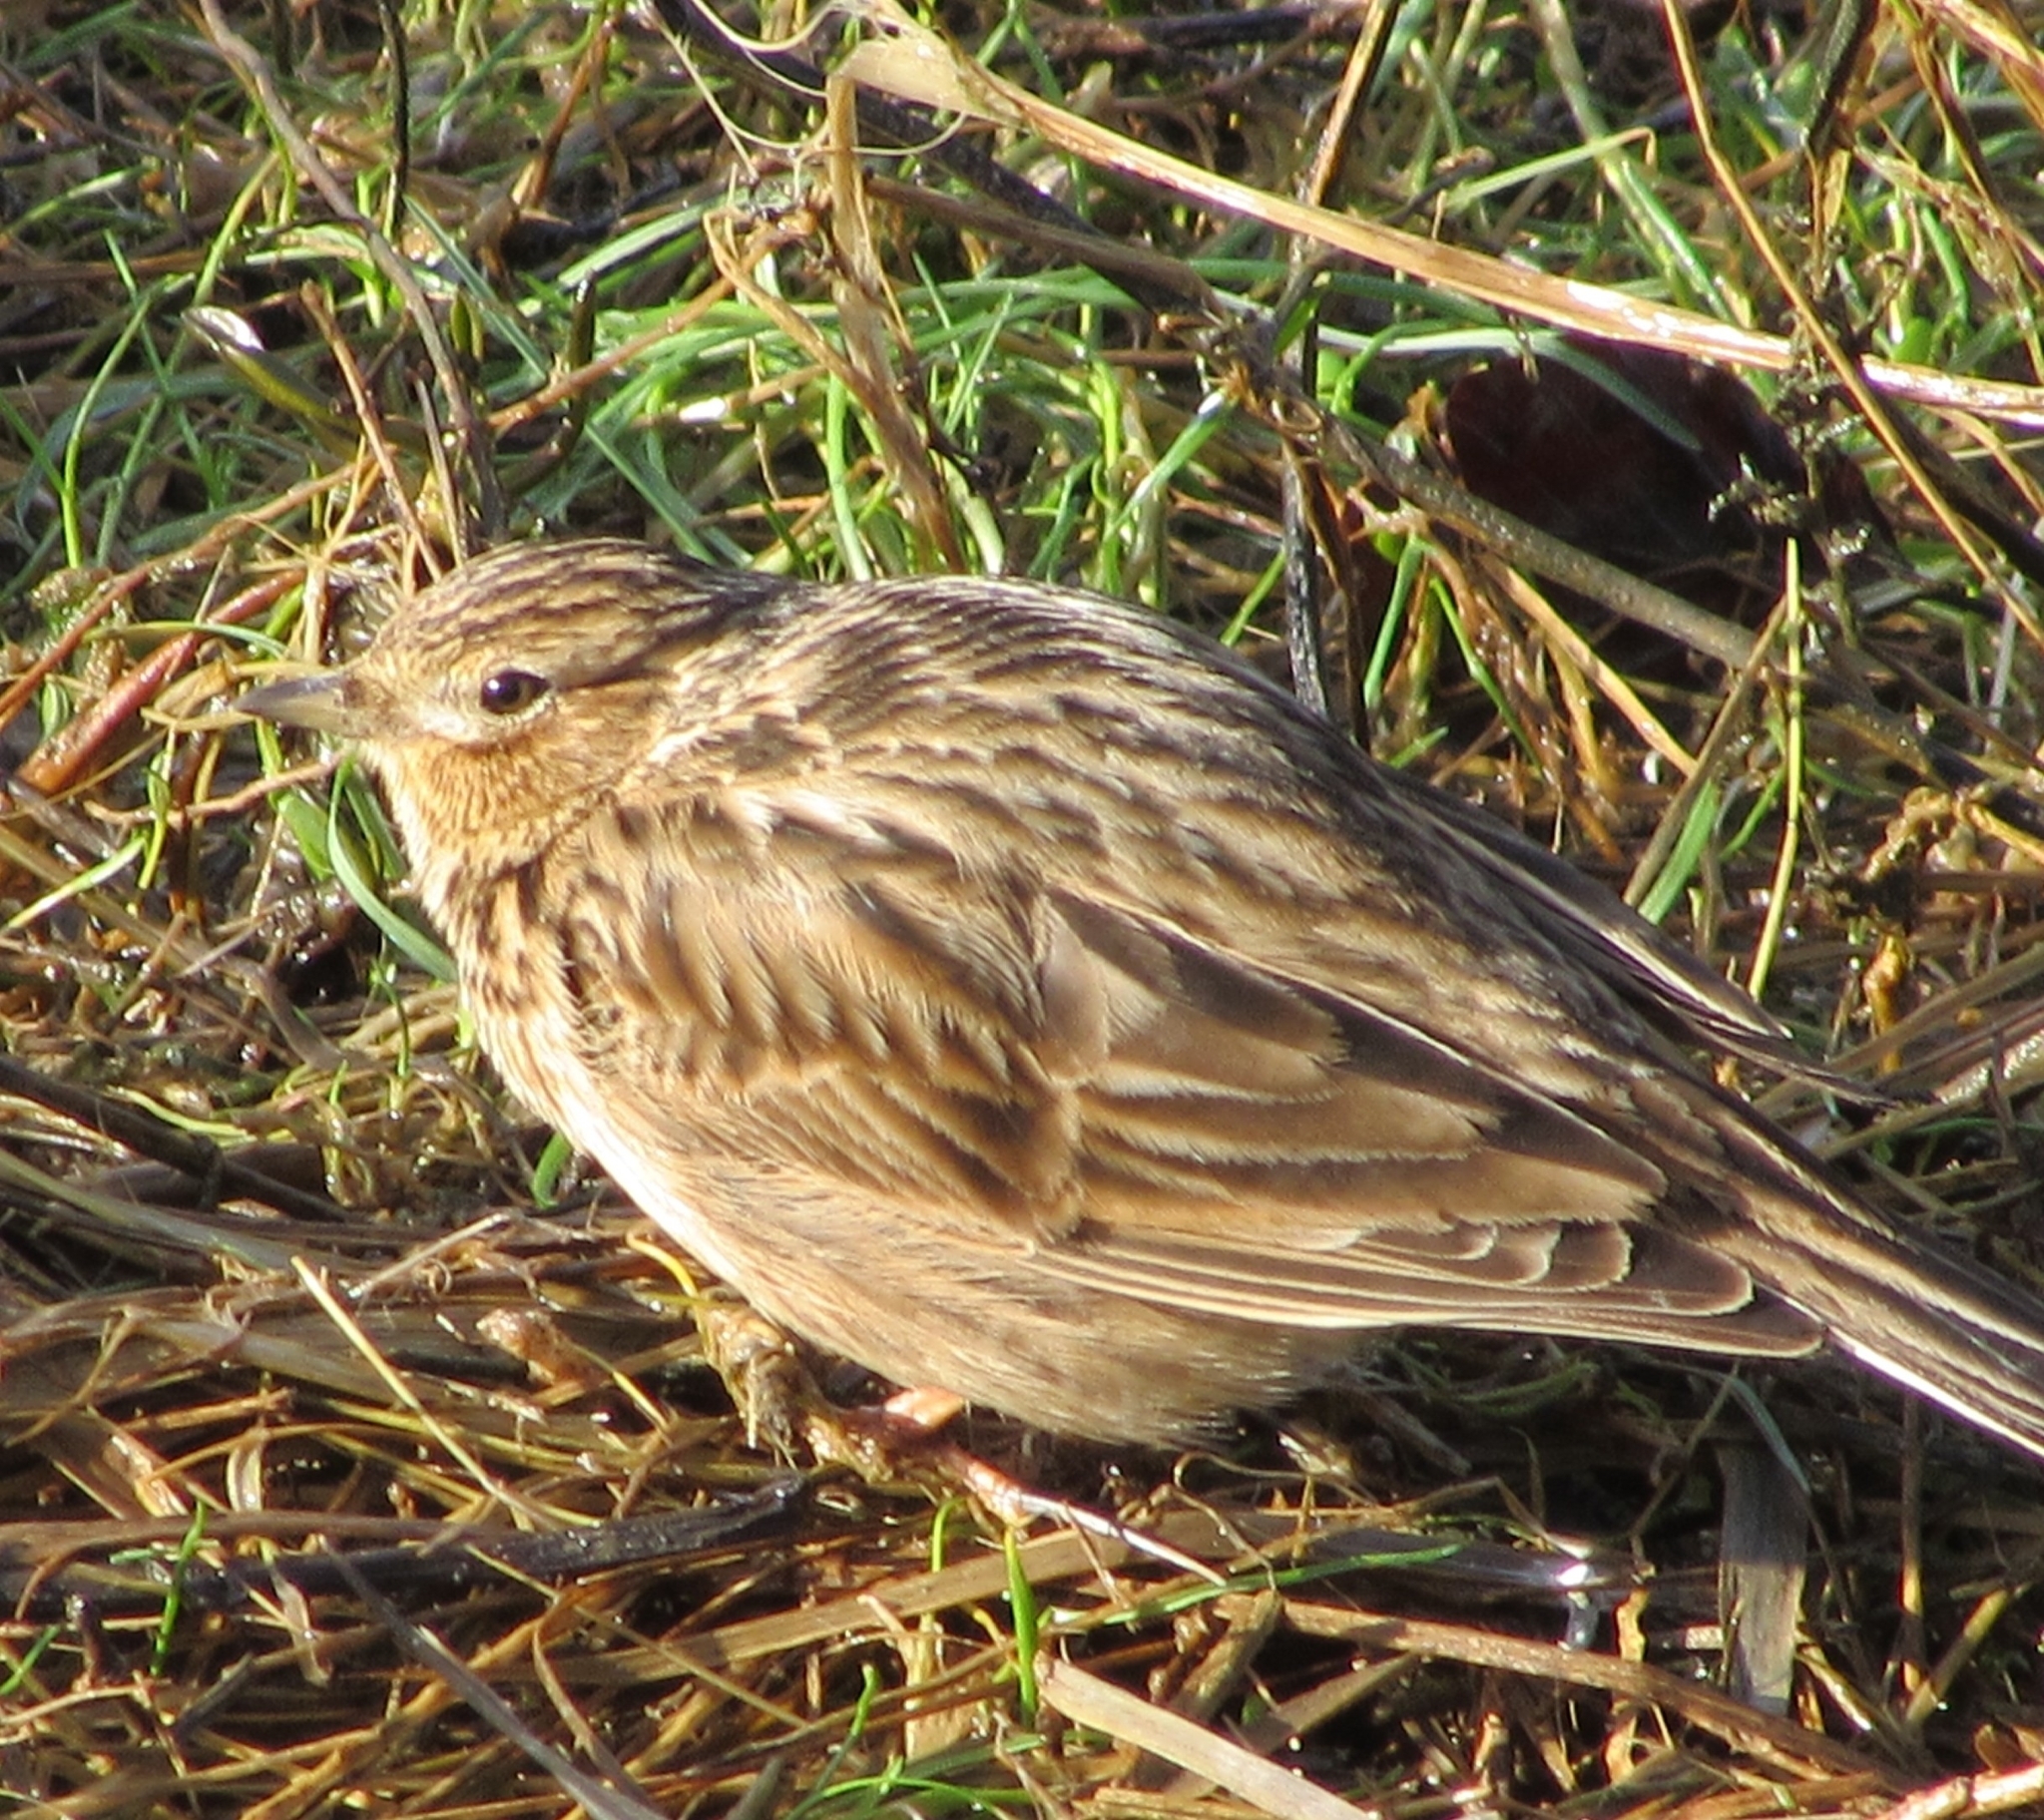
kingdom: Animalia
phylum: Chordata
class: Aves
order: Passeriformes
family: Alaudidae
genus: Alauda
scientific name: Alauda arvensis
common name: Eurasian skylark
